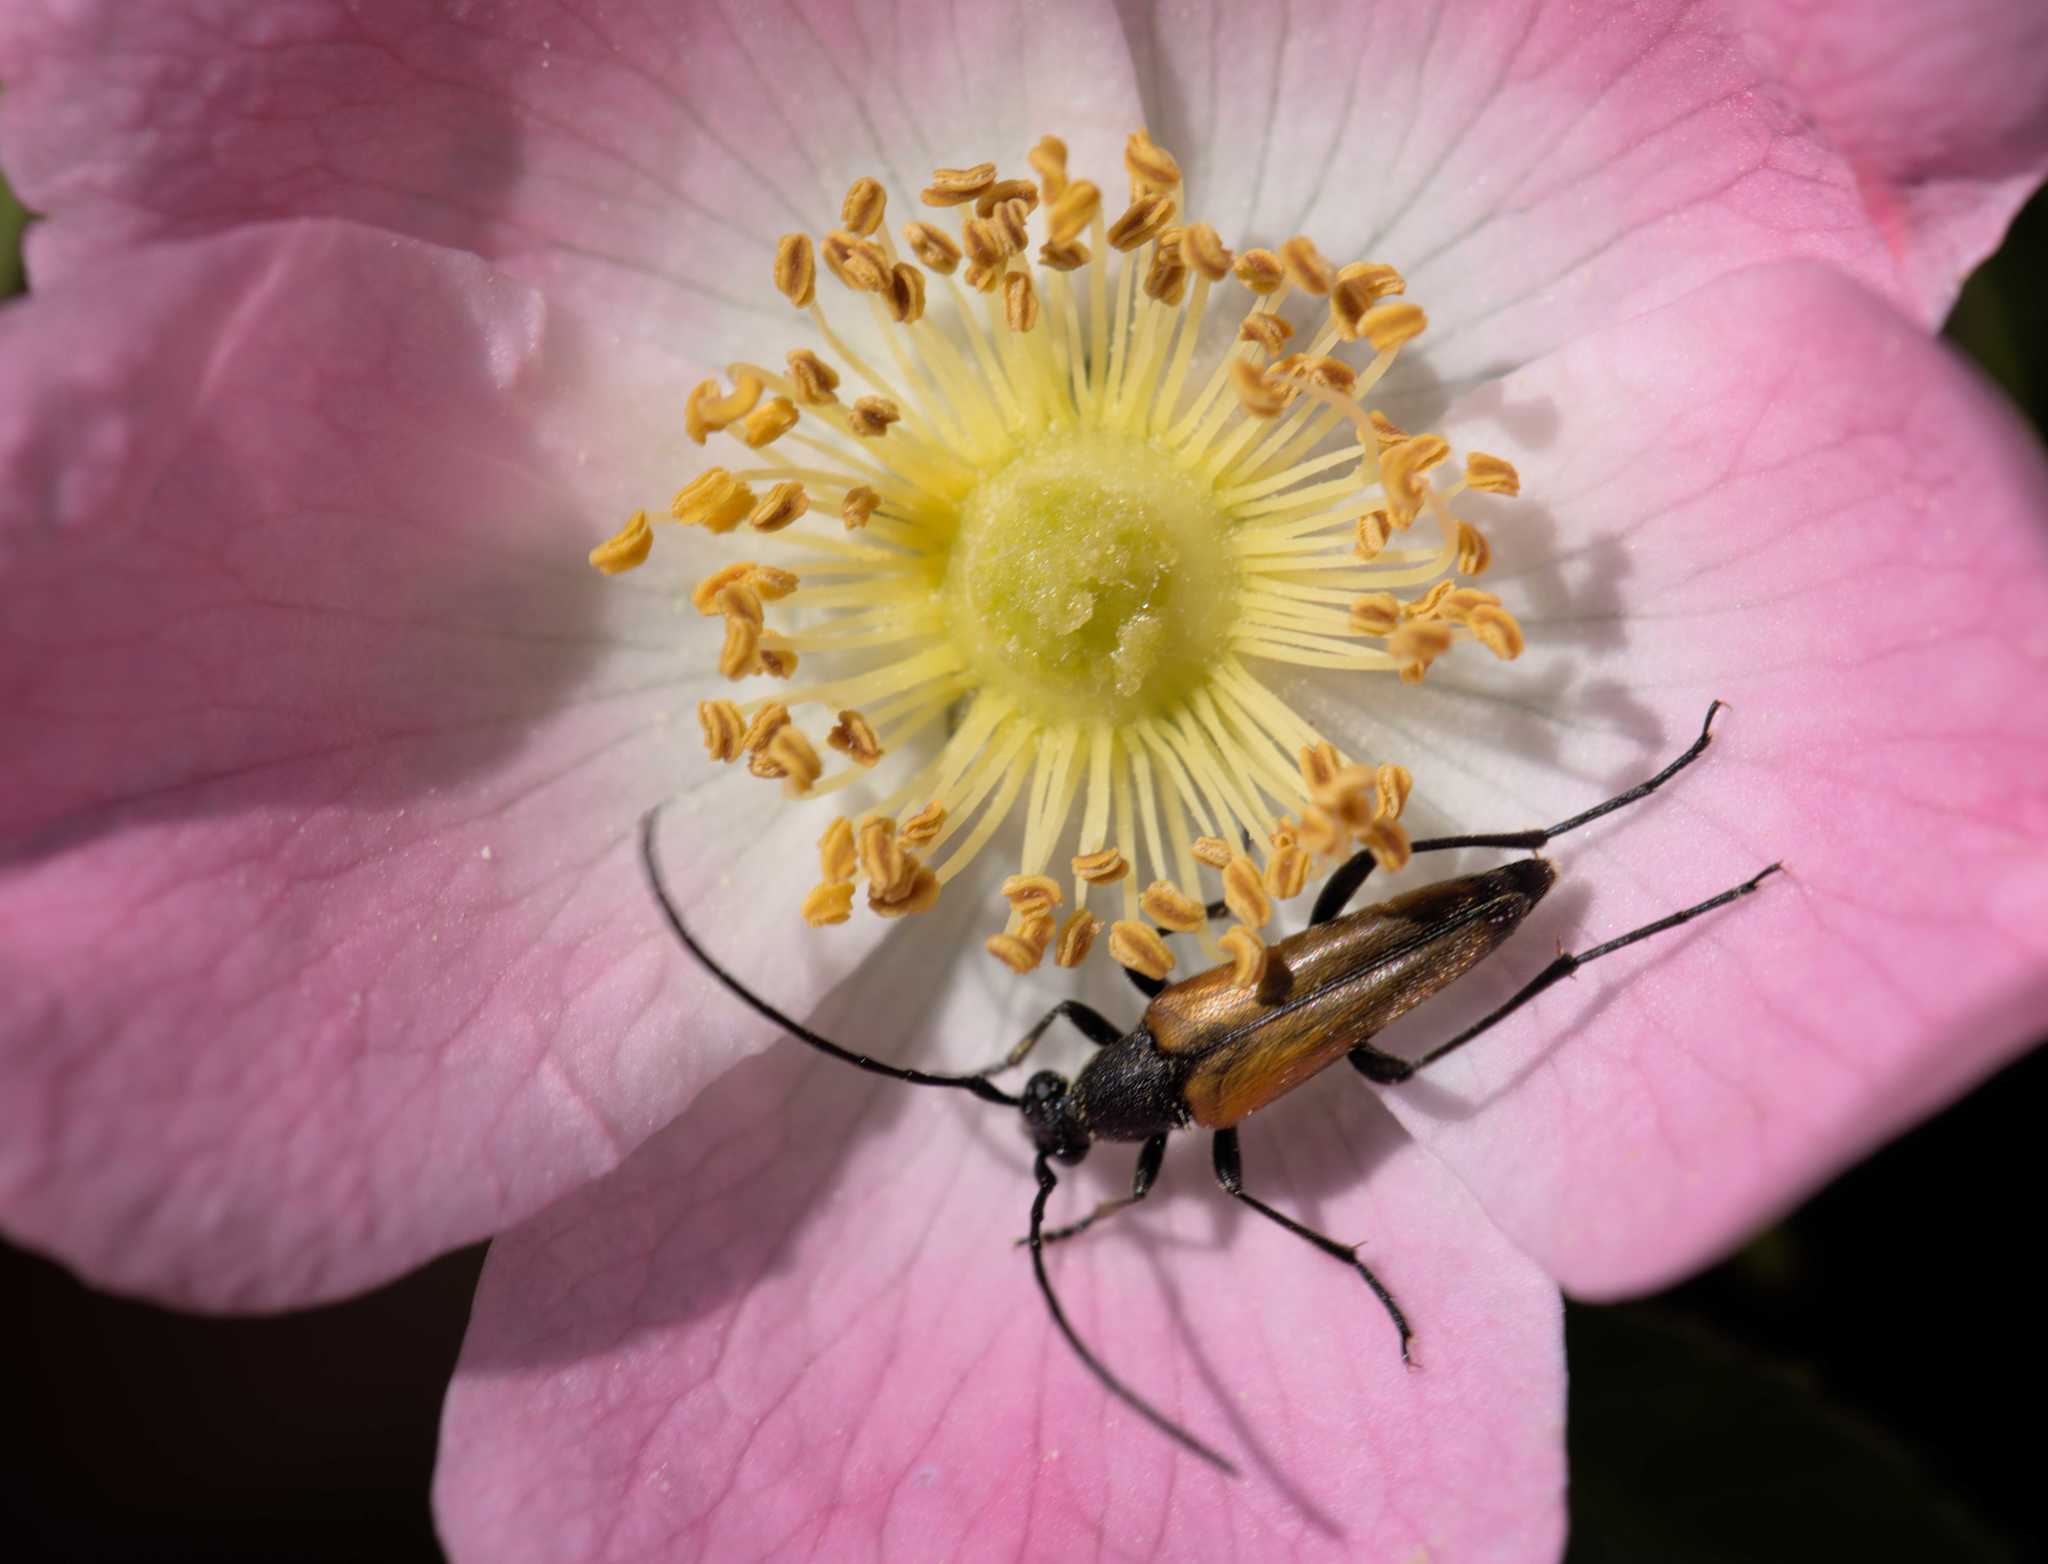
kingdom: Animalia
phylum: Arthropoda
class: Insecta
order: Coleoptera
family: Cerambycidae
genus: Stenurella
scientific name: Stenurella melanura
